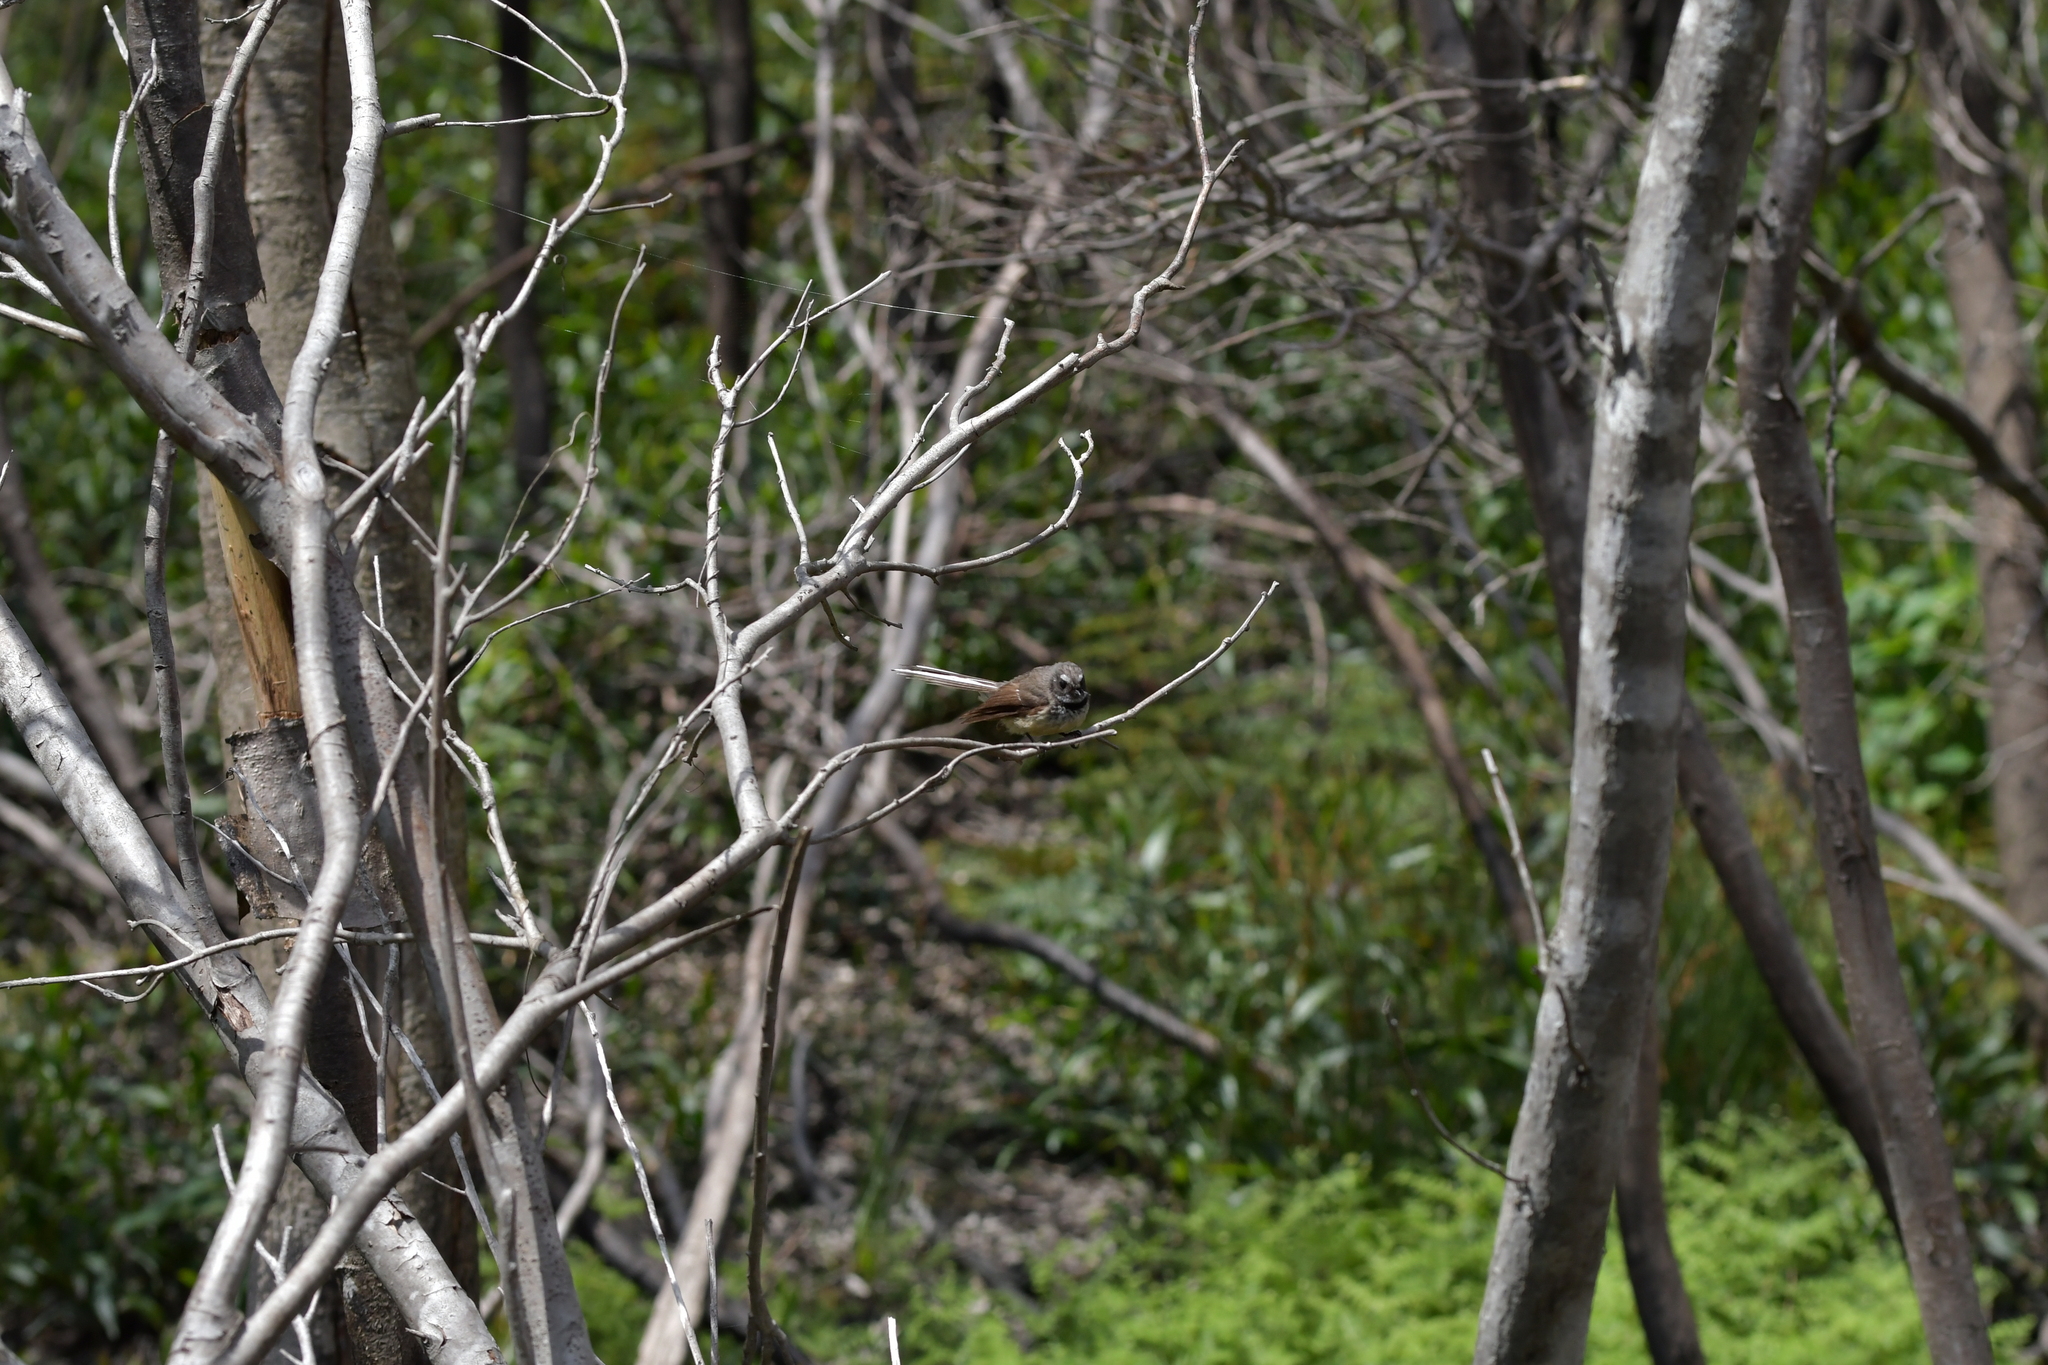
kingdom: Animalia
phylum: Chordata
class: Aves
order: Passeriformes
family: Rhipiduridae
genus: Rhipidura
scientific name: Rhipidura fuliginosa
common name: New zealand fantail
